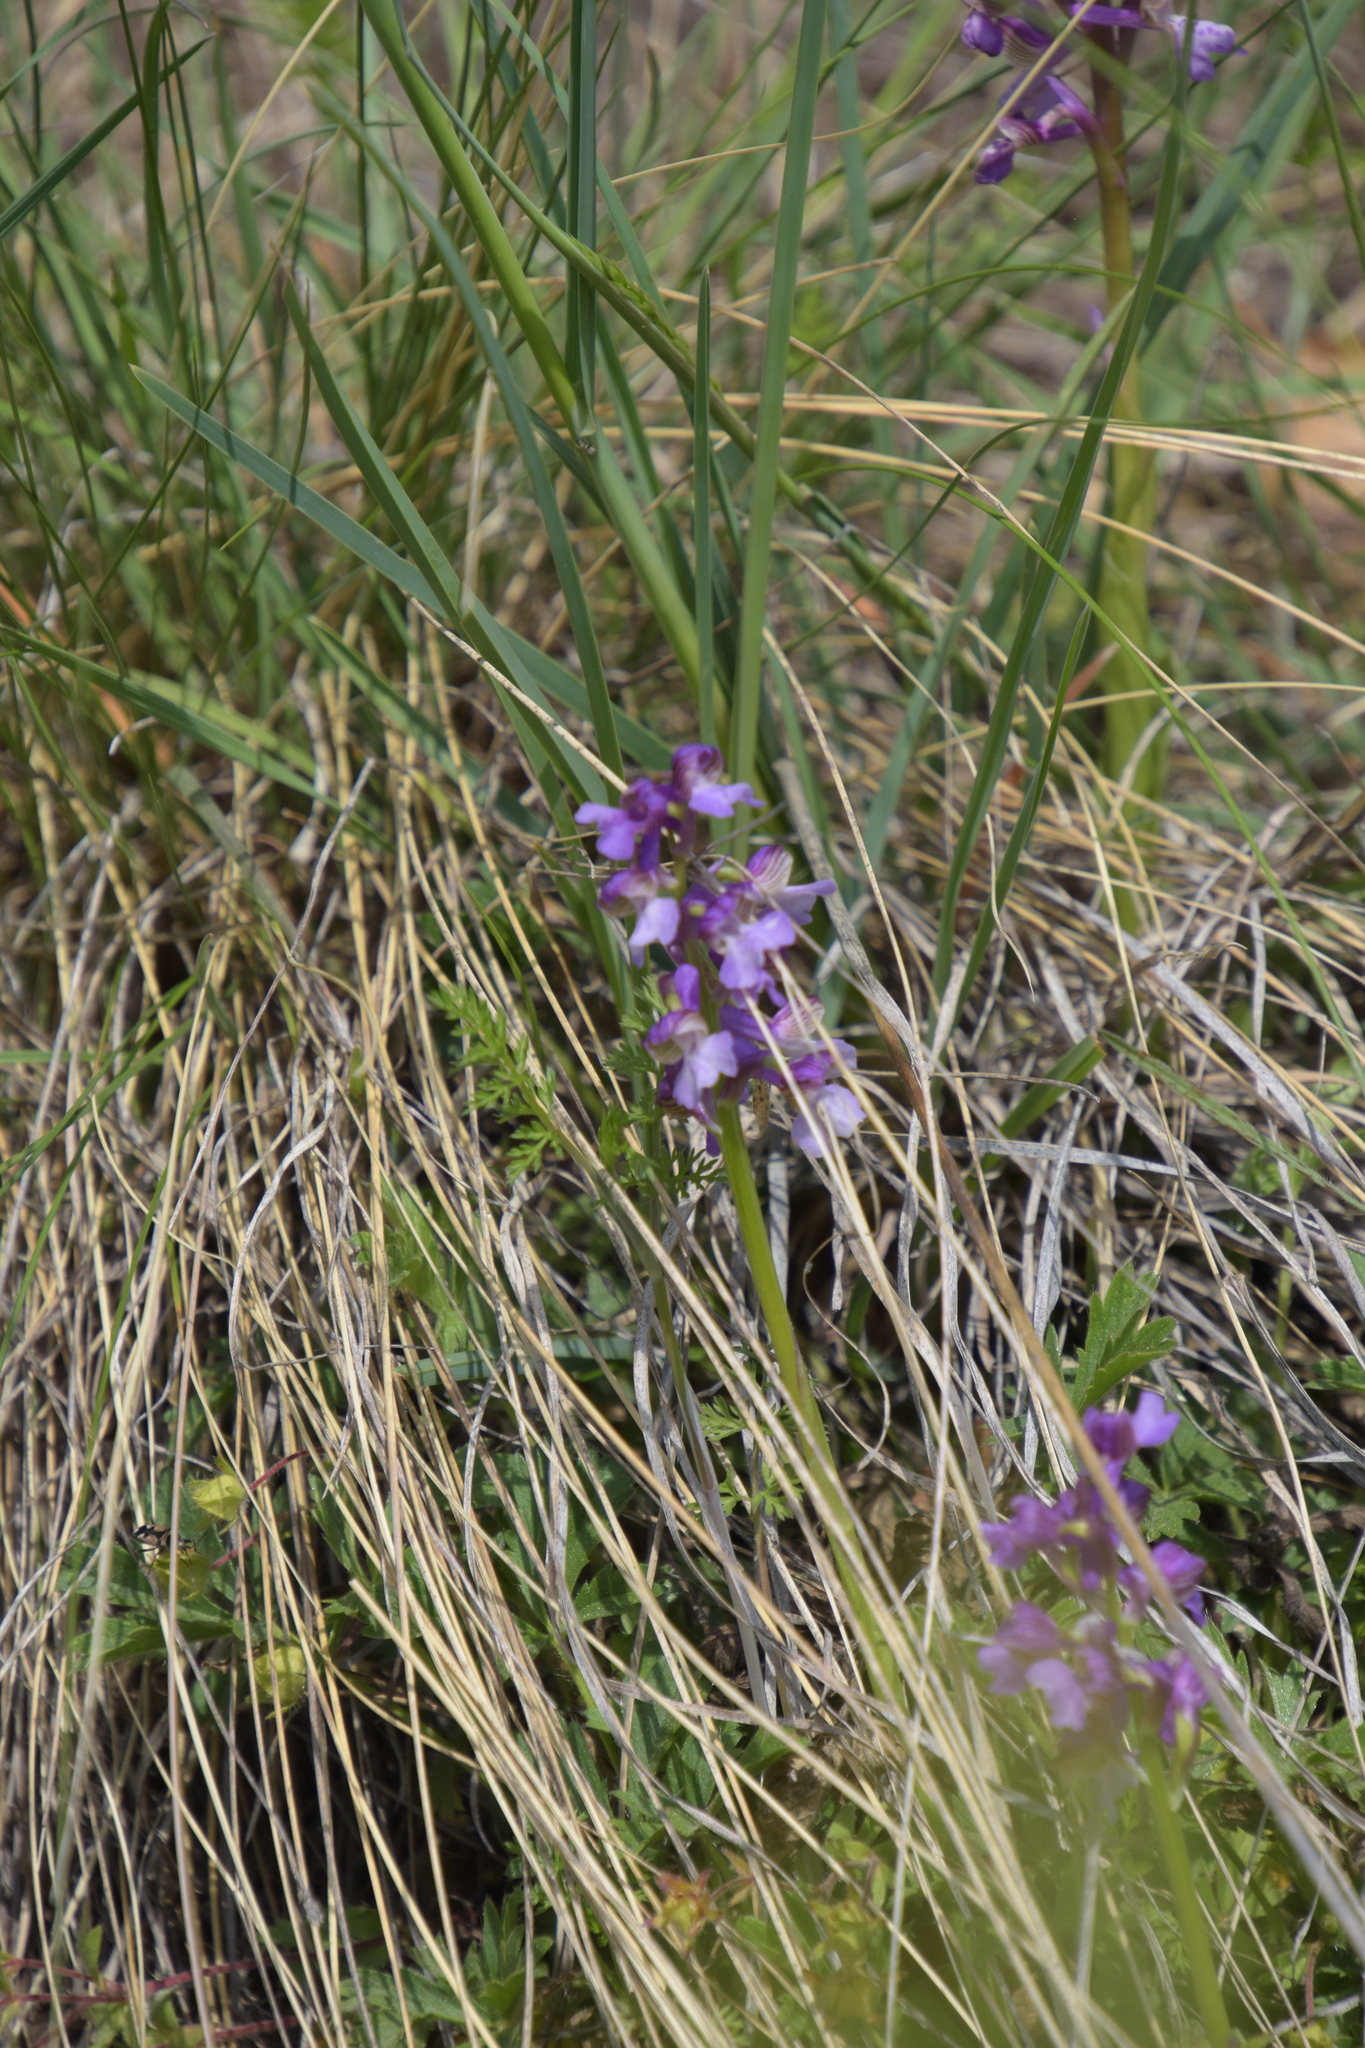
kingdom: Plantae
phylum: Tracheophyta
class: Liliopsida
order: Asparagales
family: Orchidaceae
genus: Anacamptis
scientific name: Anacamptis morio
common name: Green-winged orchid
